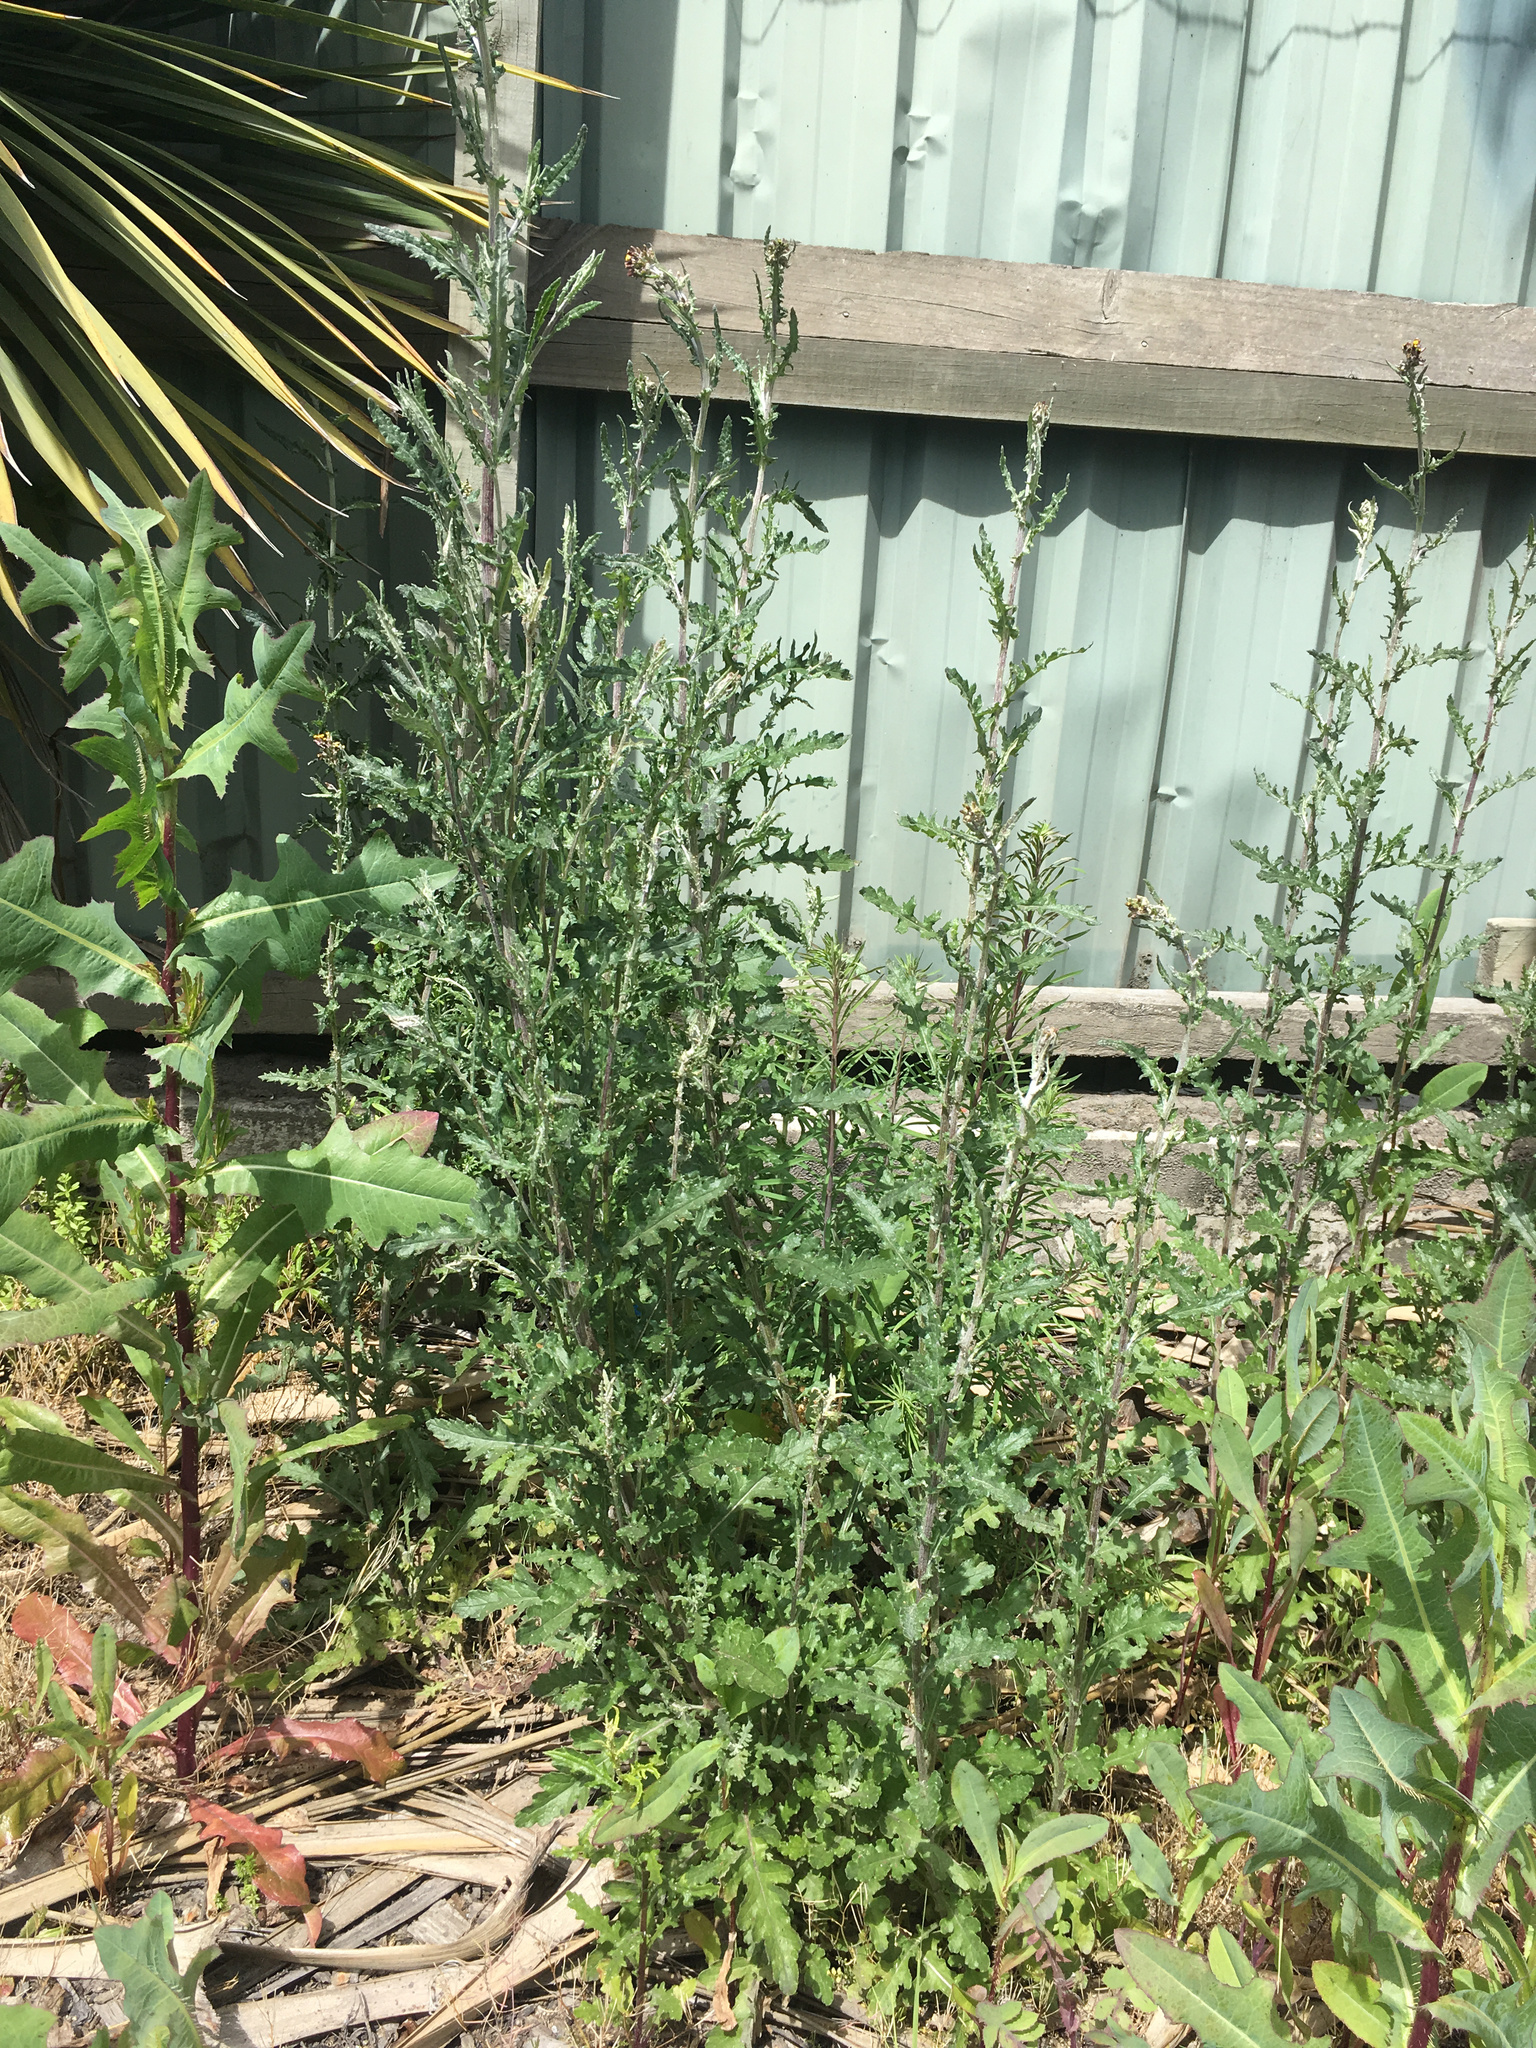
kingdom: Plantae
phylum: Tracheophyta
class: Magnoliopsida
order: Asterales
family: Asteraceae
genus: Senecio
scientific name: Senecio glomeratus
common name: Cutleaf burnweed
